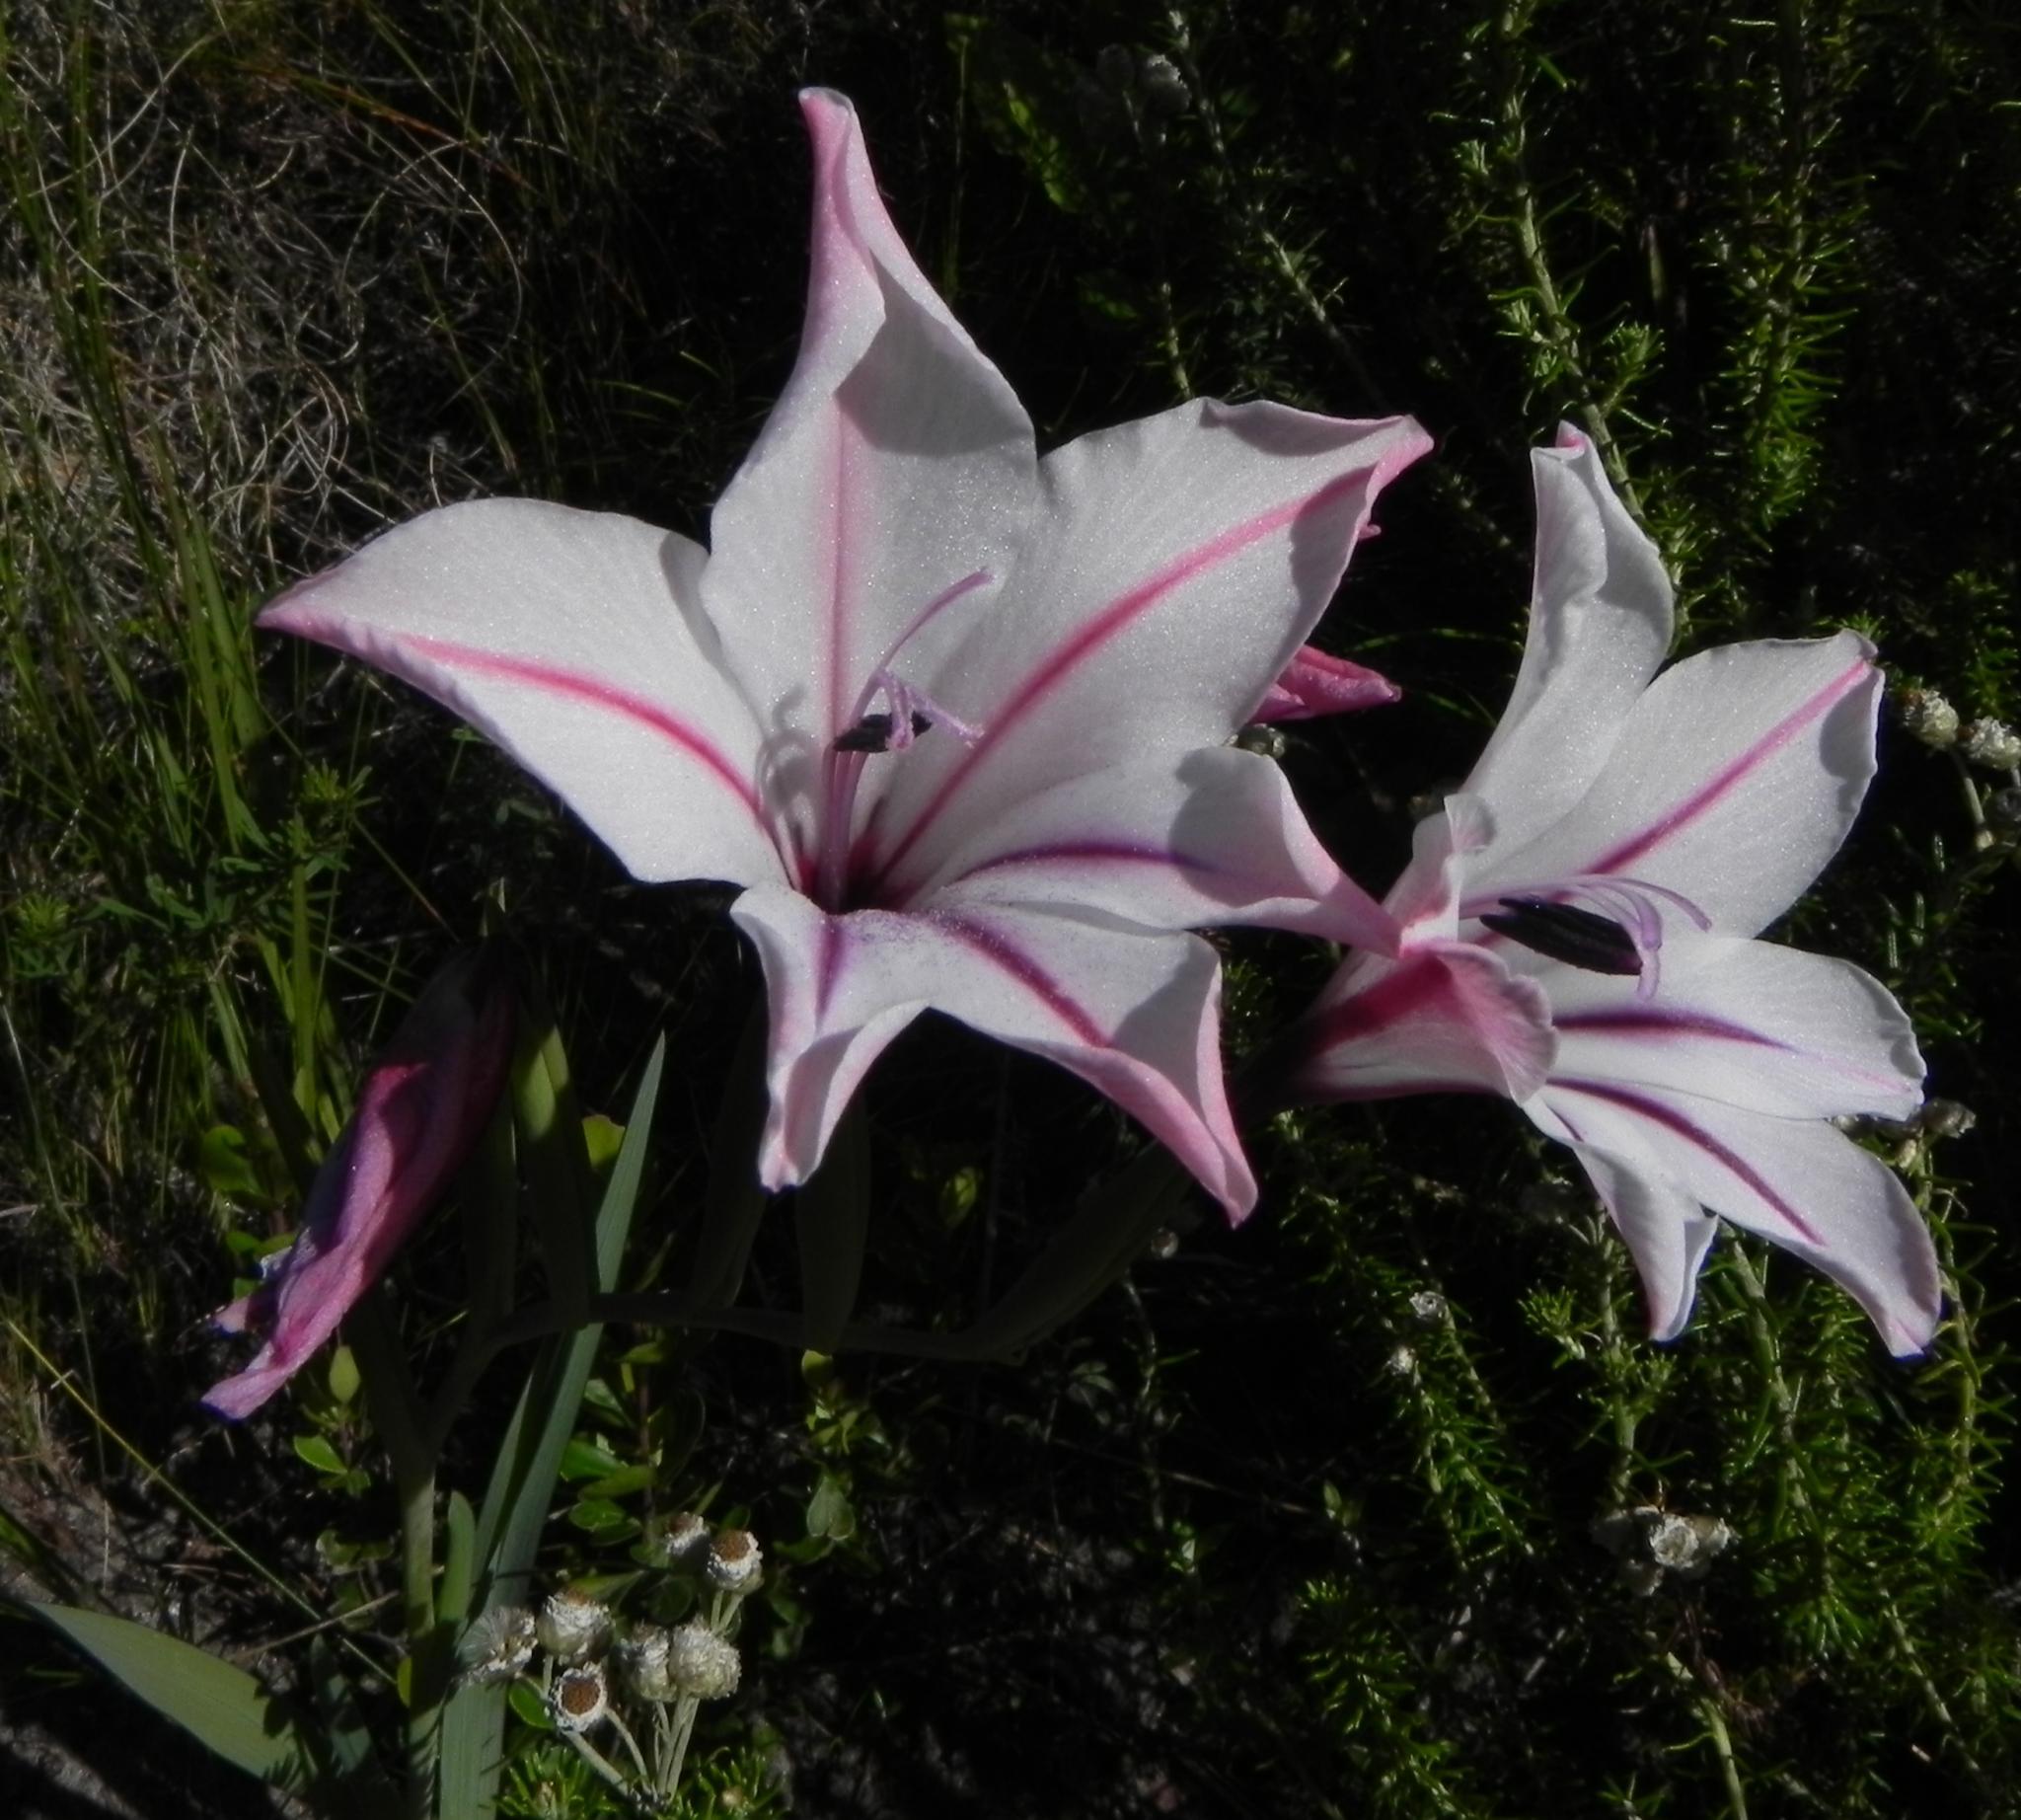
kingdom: Plantae
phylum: Tracheophyta
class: Liliopsida
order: Asparagales
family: Iridaceae
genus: Gladiolus
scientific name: Gladiolus floribundus
